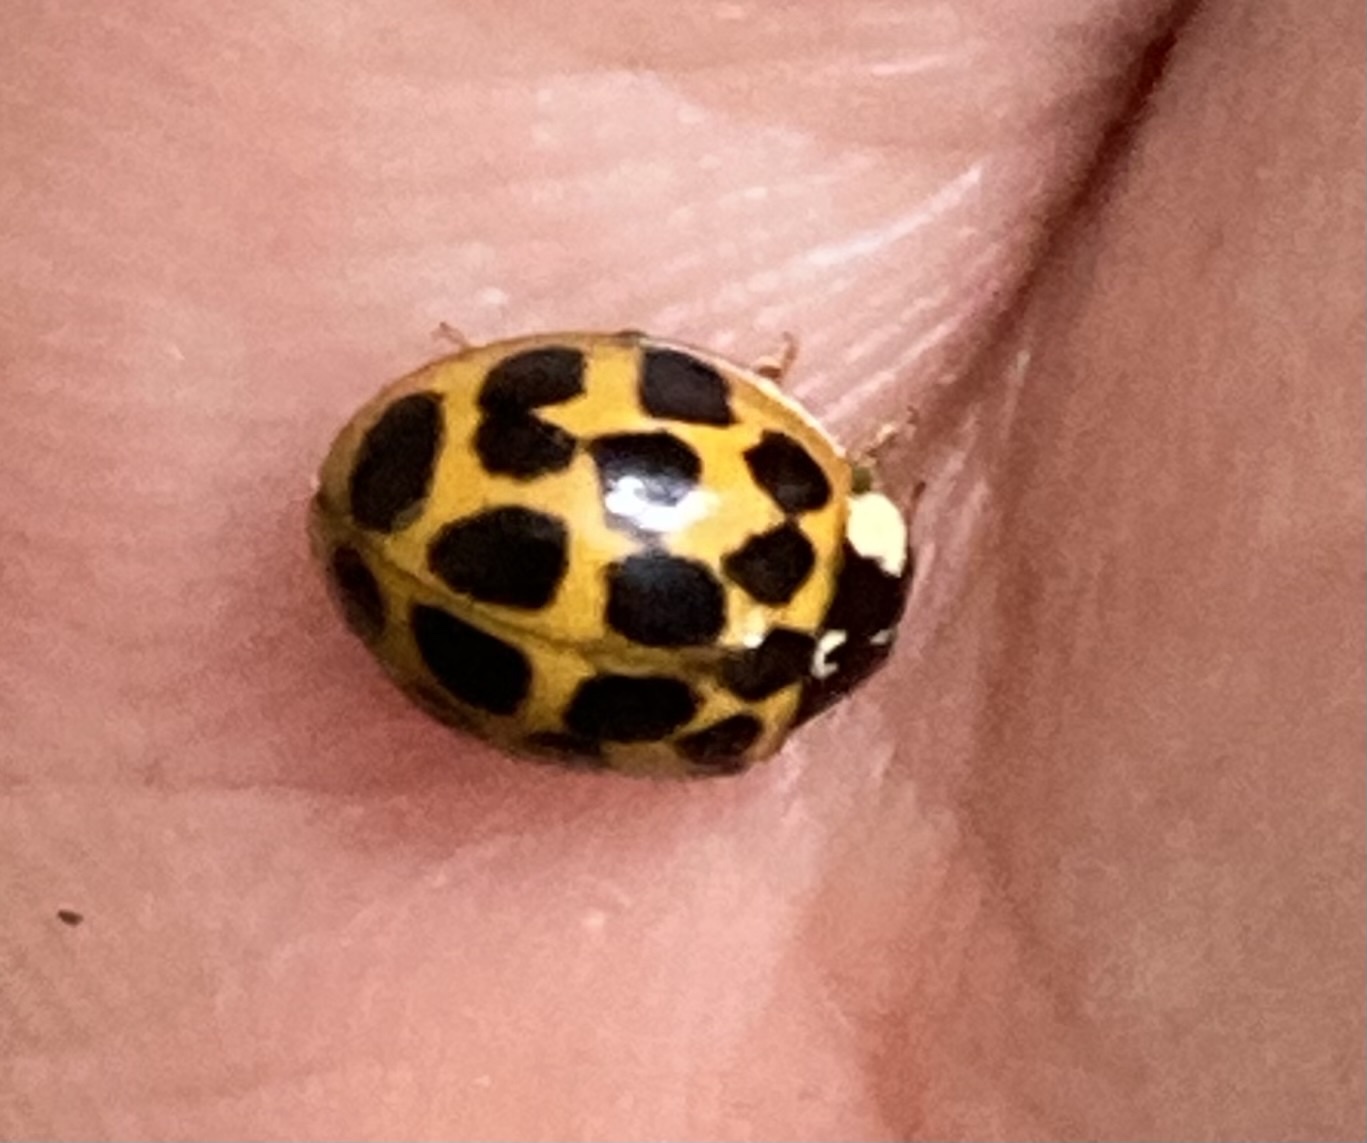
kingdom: Animalia
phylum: Arthropoda
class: Insecta
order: Coleoptera
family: Coccinellidae
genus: Harmonia
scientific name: Harmonia axyridis
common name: Harlequin ladybird
